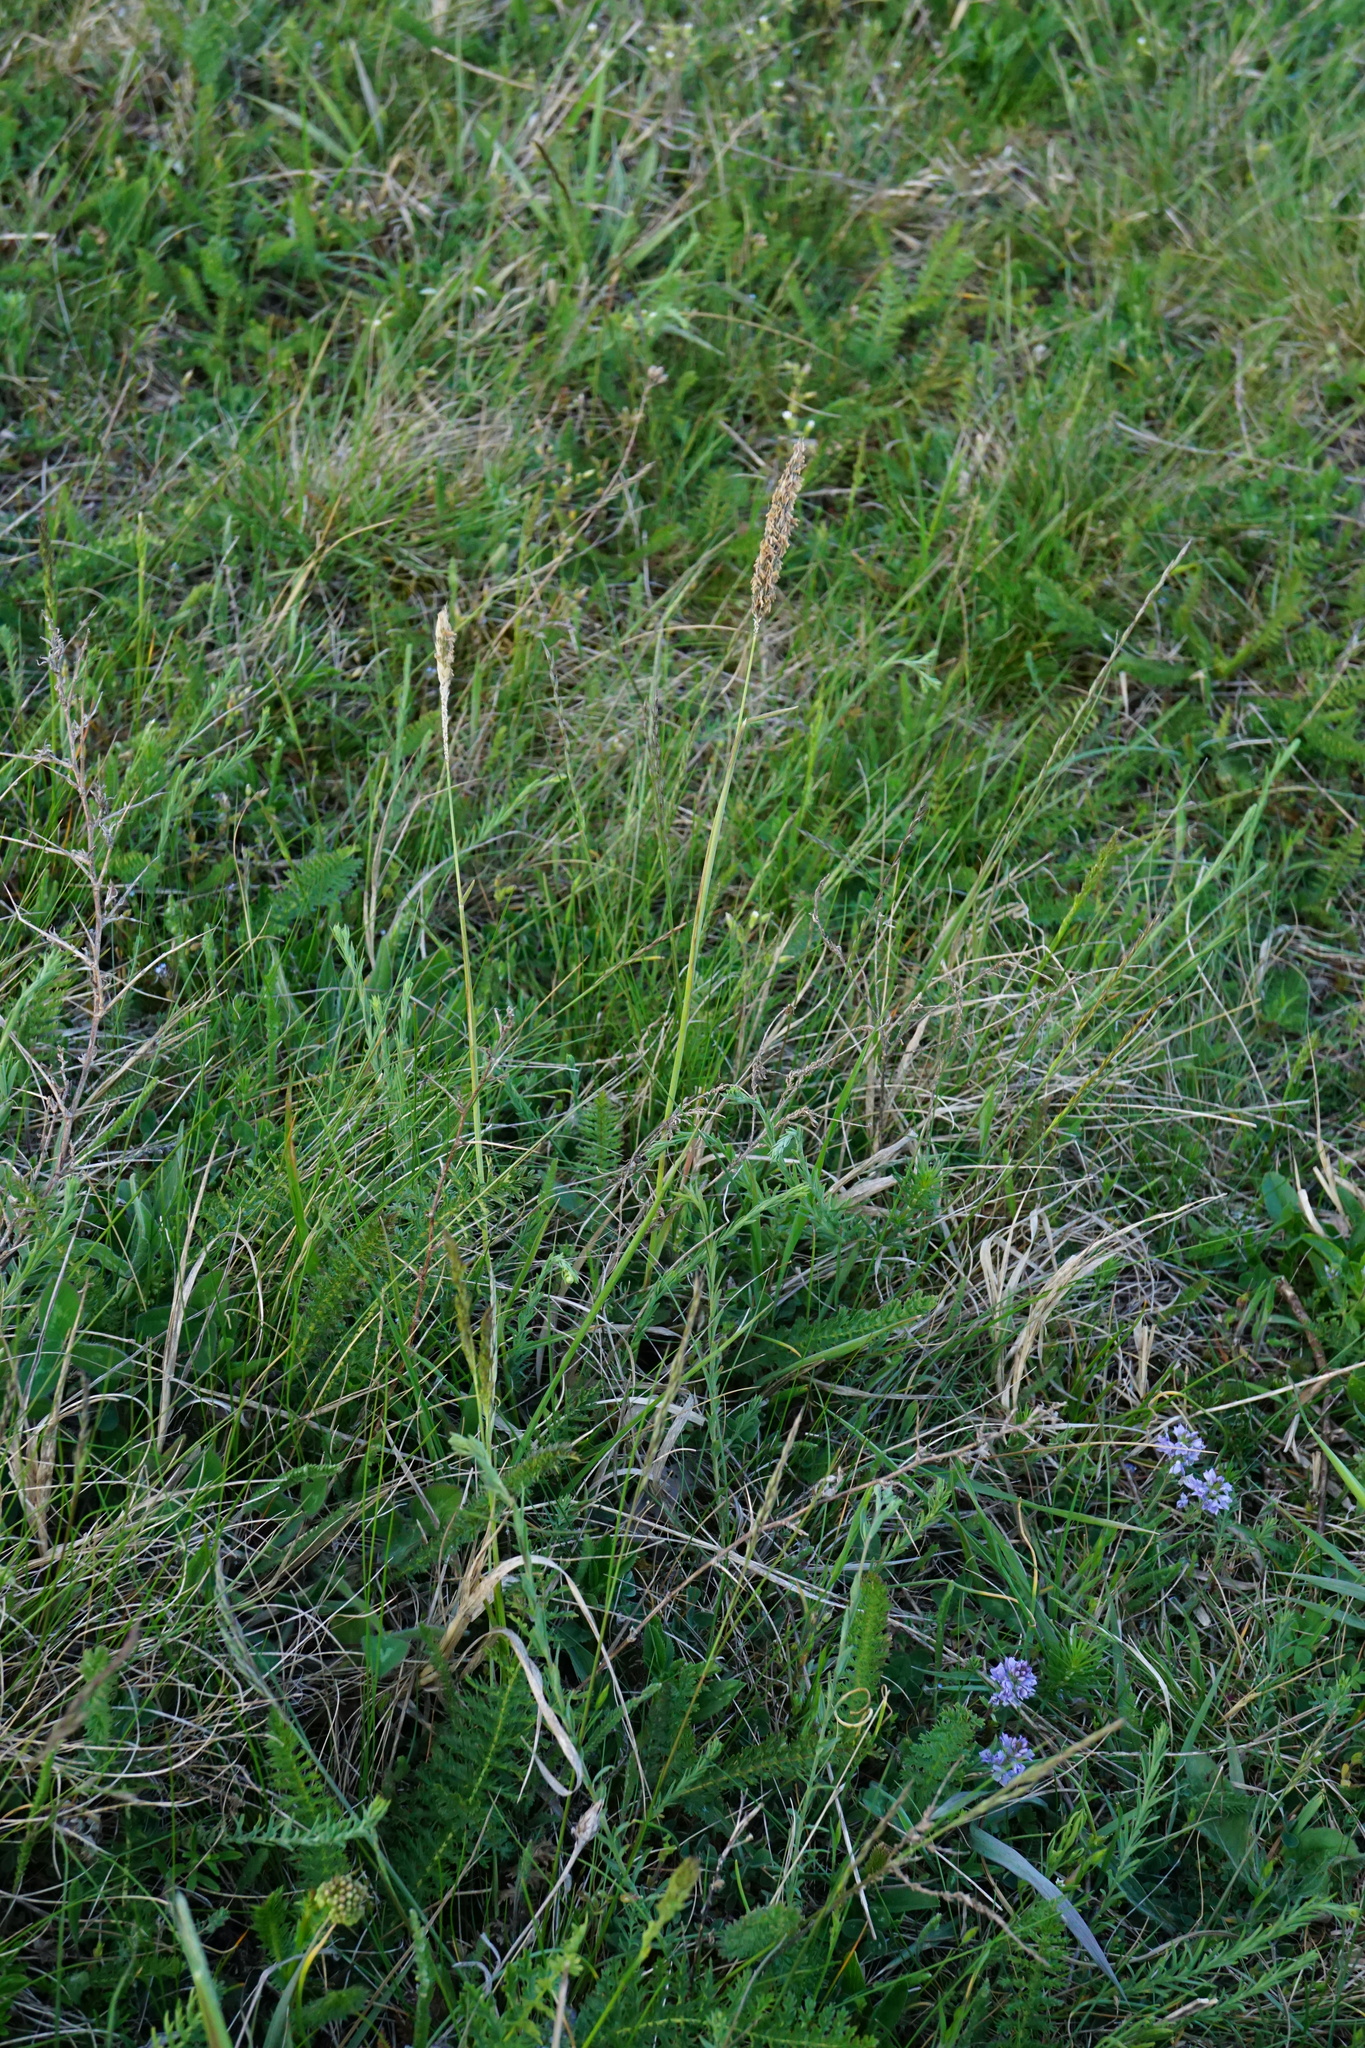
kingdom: Plantae
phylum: Tracheophyta
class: Liliopsida
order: Poales
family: Poaceae
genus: Alopecurus
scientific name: Alopecurus pratensis
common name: Meadow foxtail
